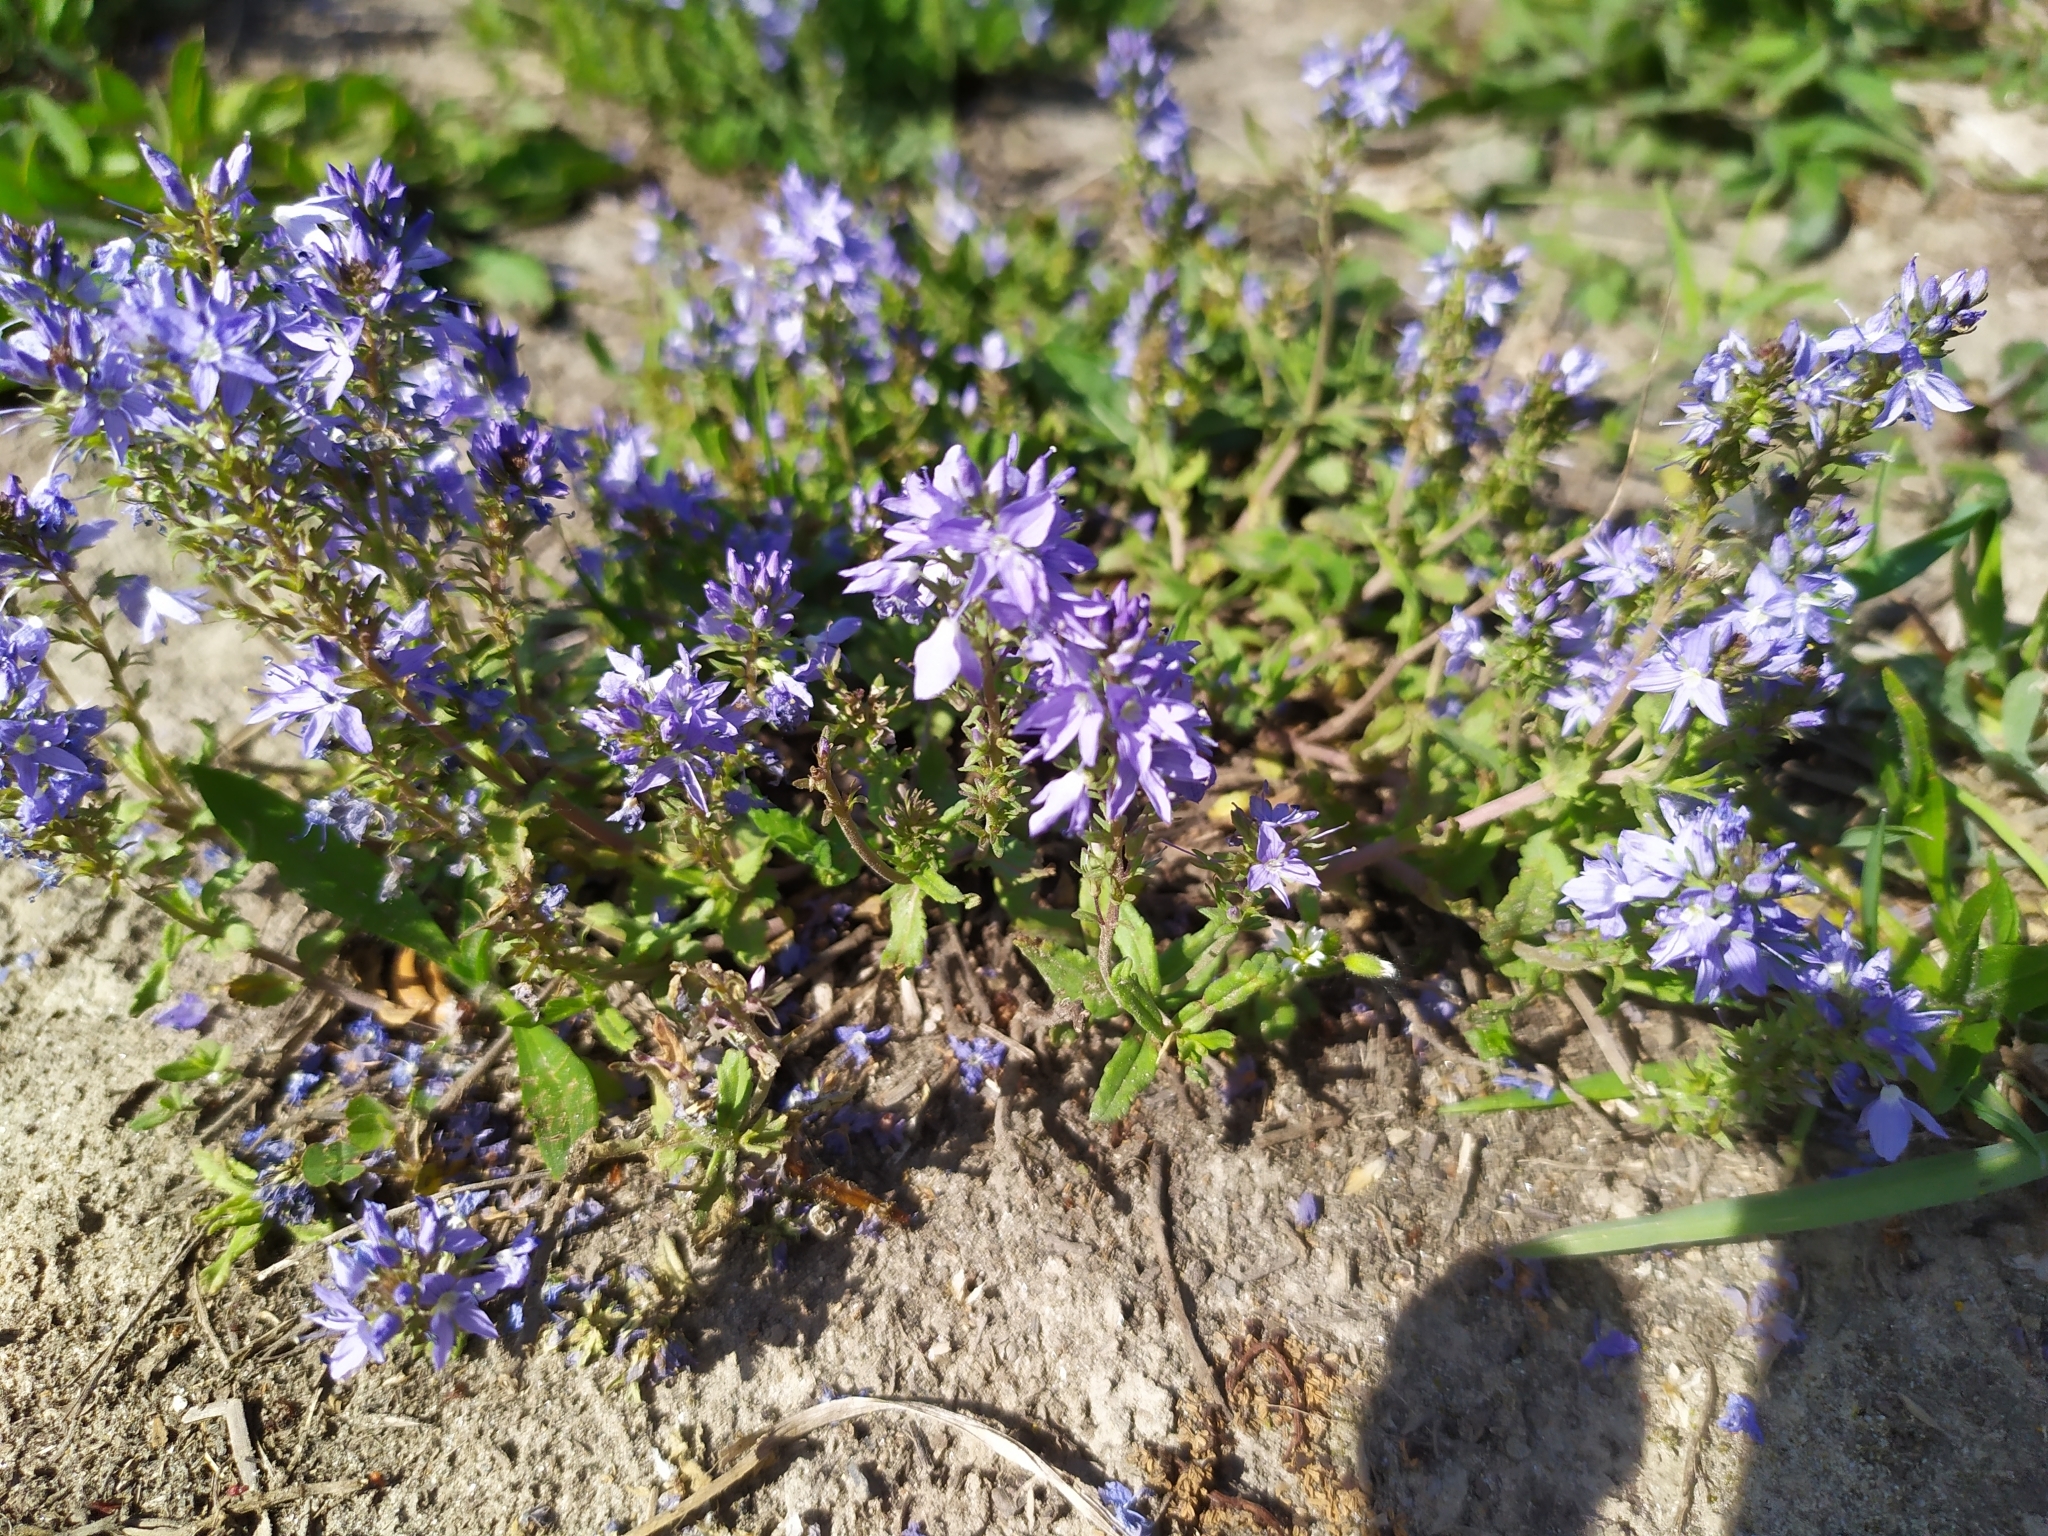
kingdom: Plantae
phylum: Tracheophyta
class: Magnoliopsida
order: Lamiales
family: Plantaginaceae
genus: Veronica
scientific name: Veronica prostrata
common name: Prostrate speedwell
